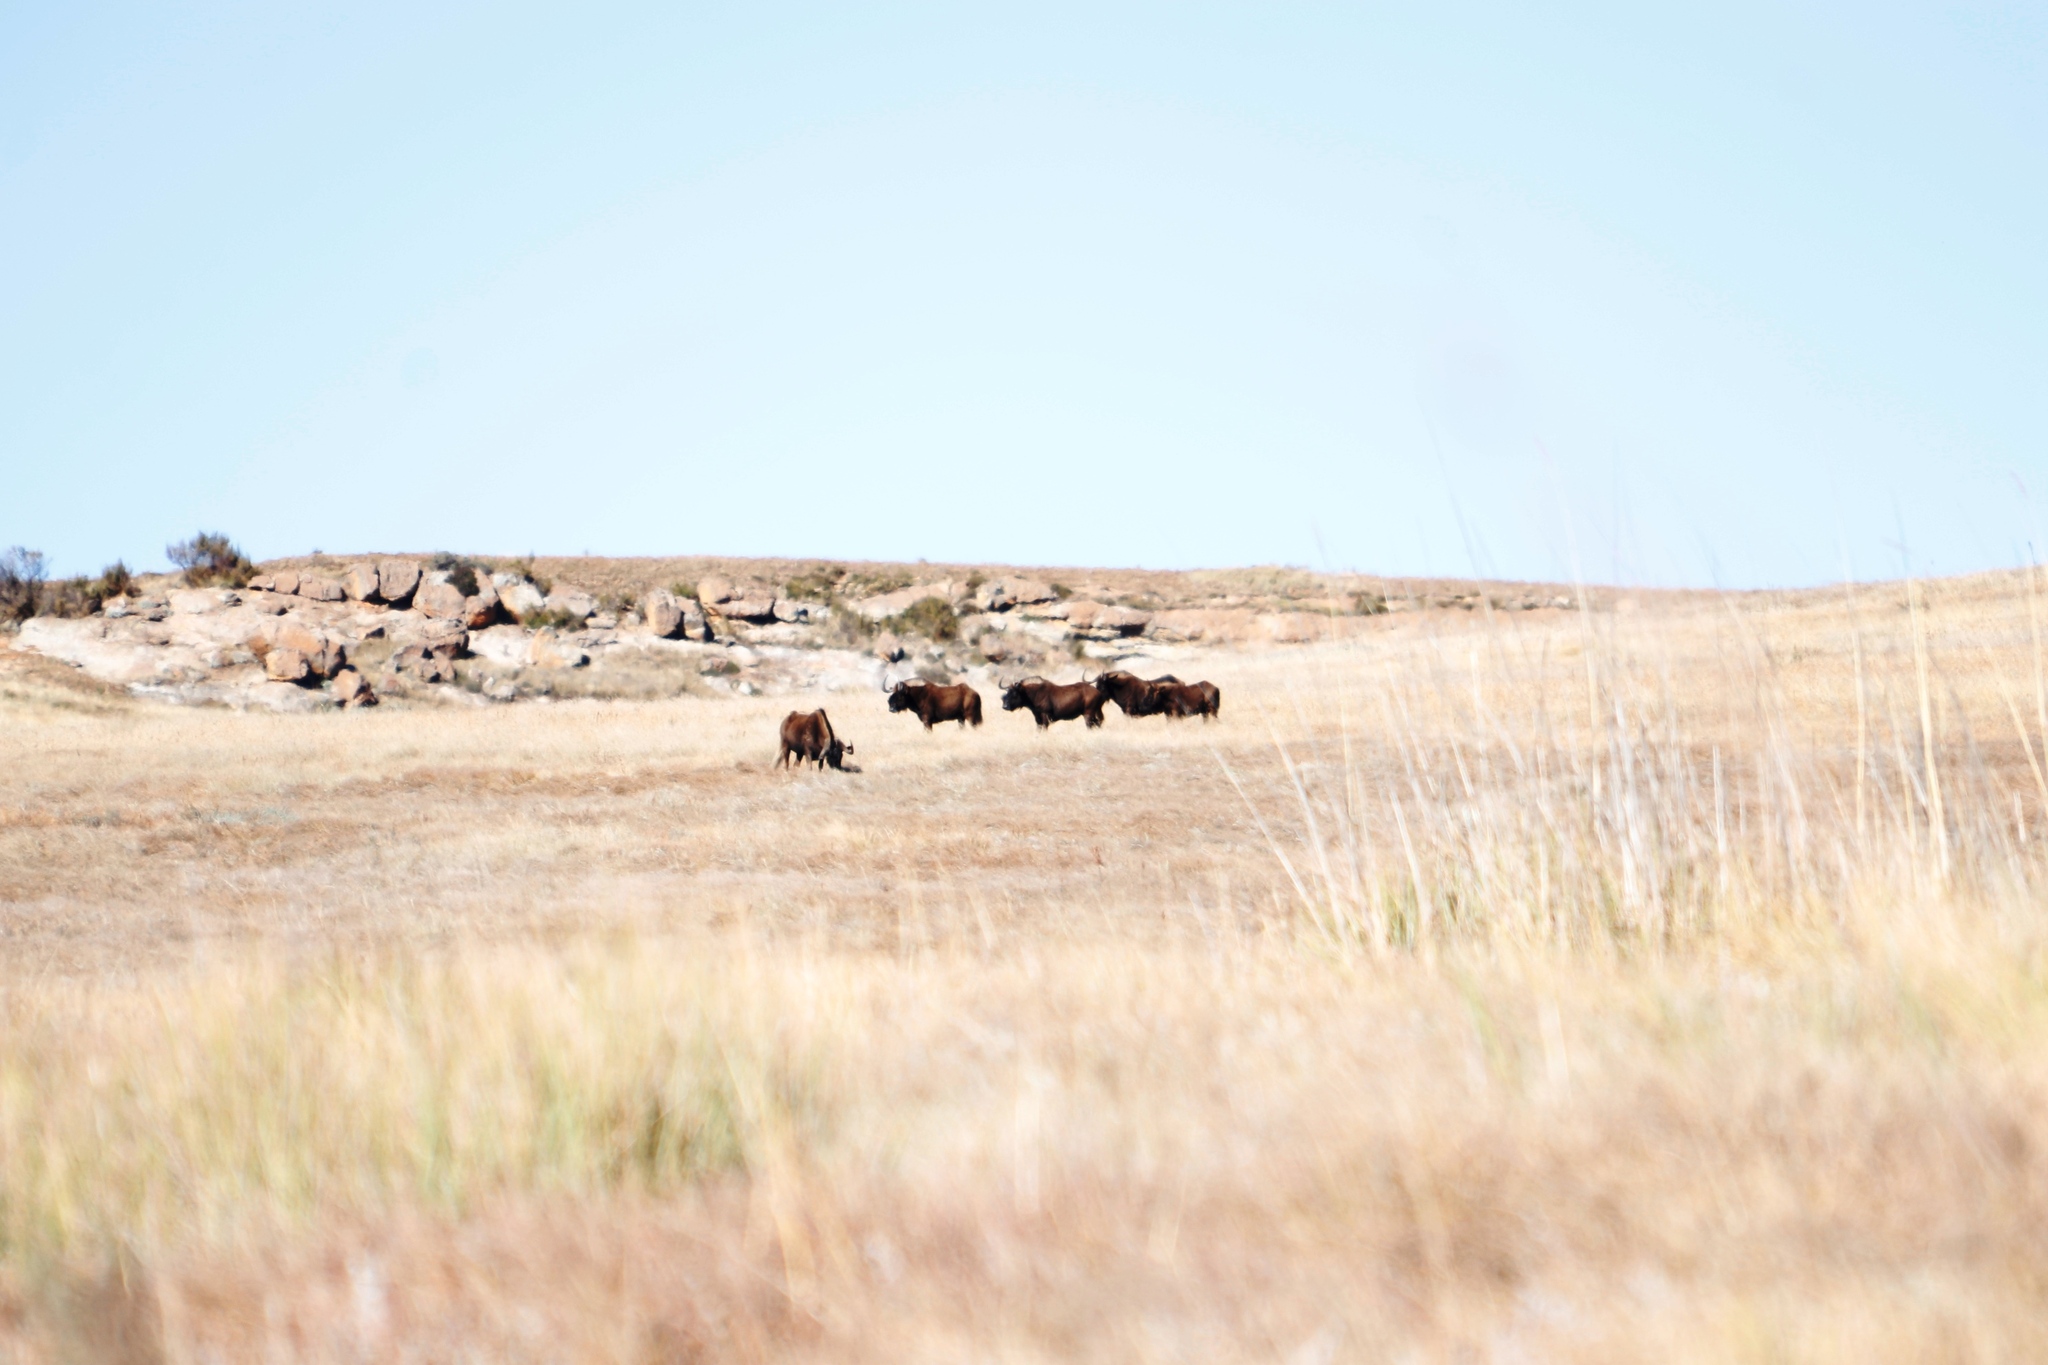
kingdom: Animalia
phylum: Chordata
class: Mammalia
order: Artiodactyla
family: Bovidae
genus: Connochaetes
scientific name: Connochaetes gnou
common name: Black wildebeest
